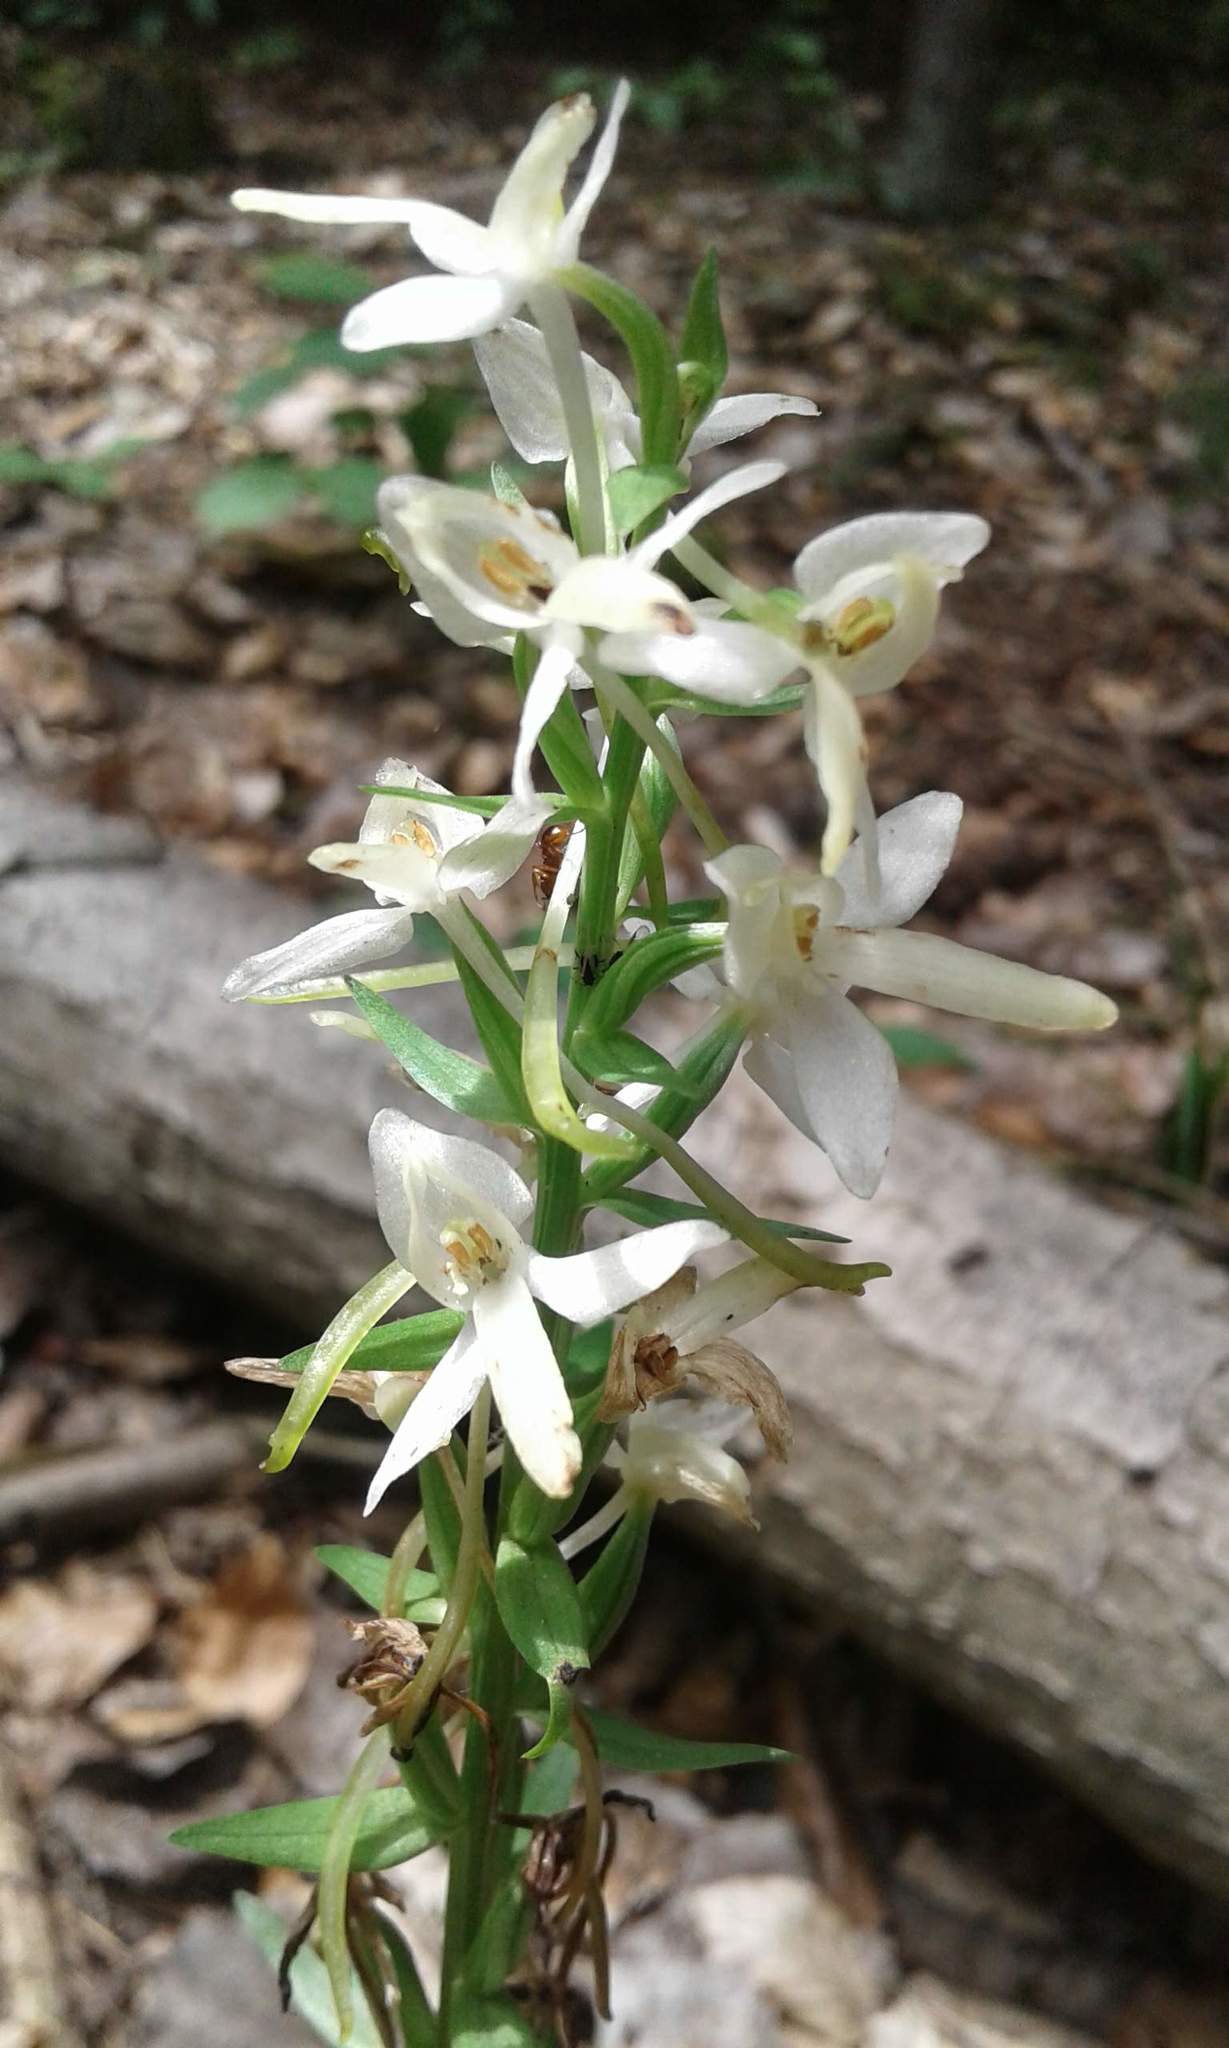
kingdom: Plantae
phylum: Tracheophyta
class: Liliopsida
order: Asparagales
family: Orchidaceae
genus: Platanthera
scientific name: Platanthera bifolia
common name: Lesser butterfly-orchid
